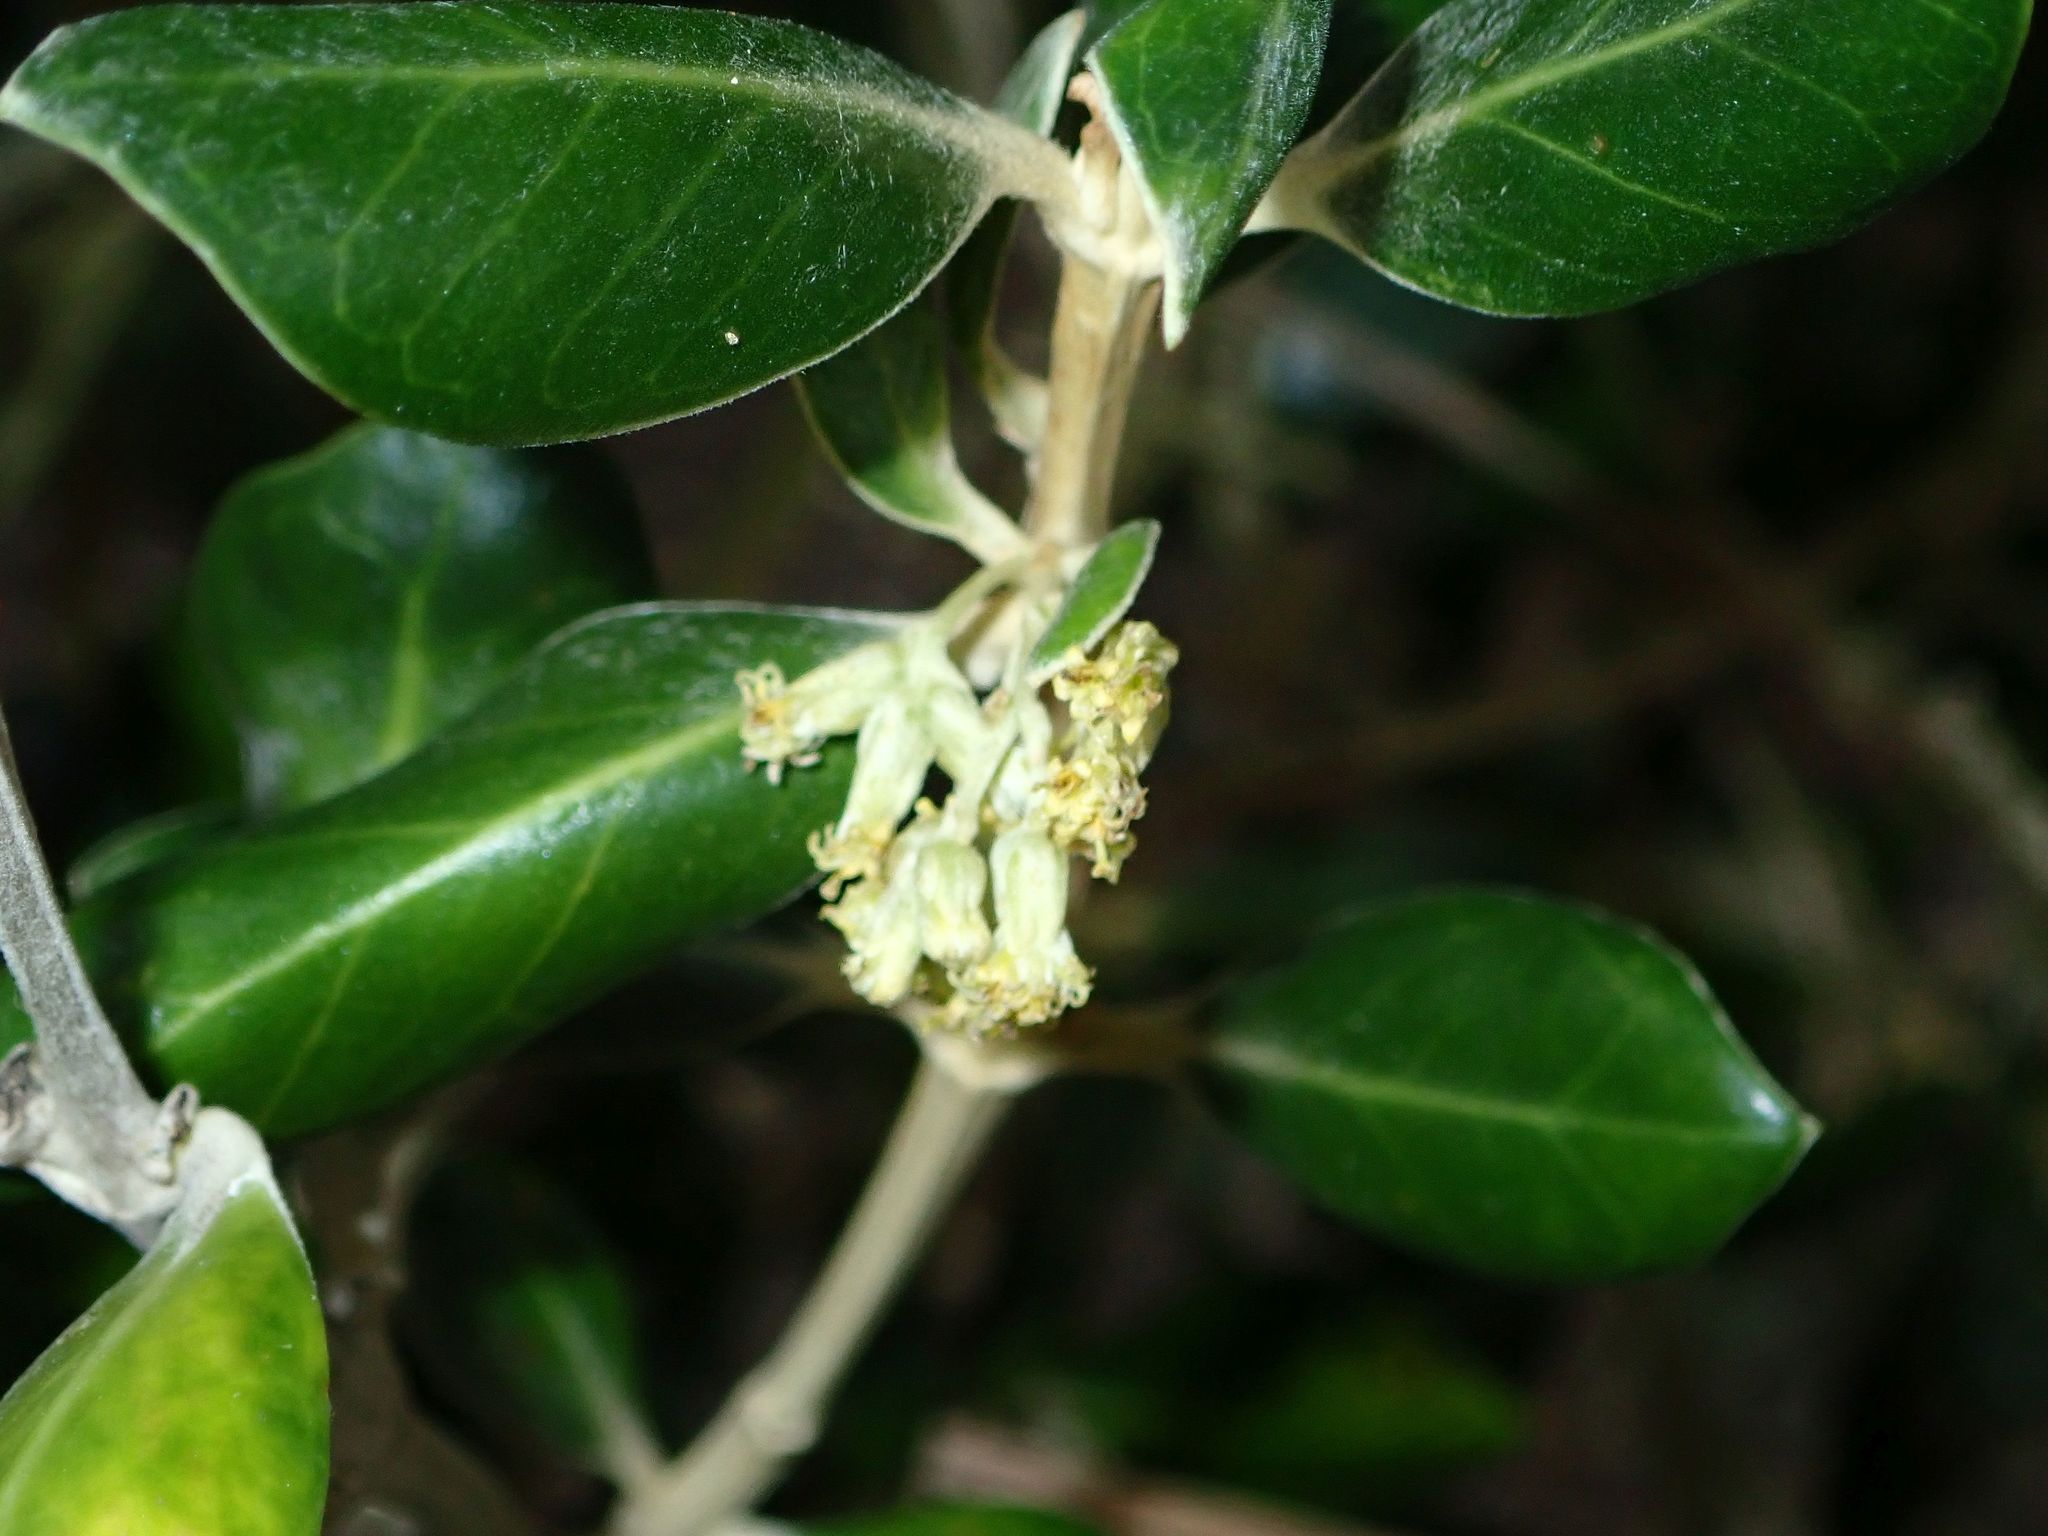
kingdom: Plantae
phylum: Tracheophyta
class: Magnoliopsida
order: Asterales
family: Asteraceae
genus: Olearia
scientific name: Olearia traversiorum
